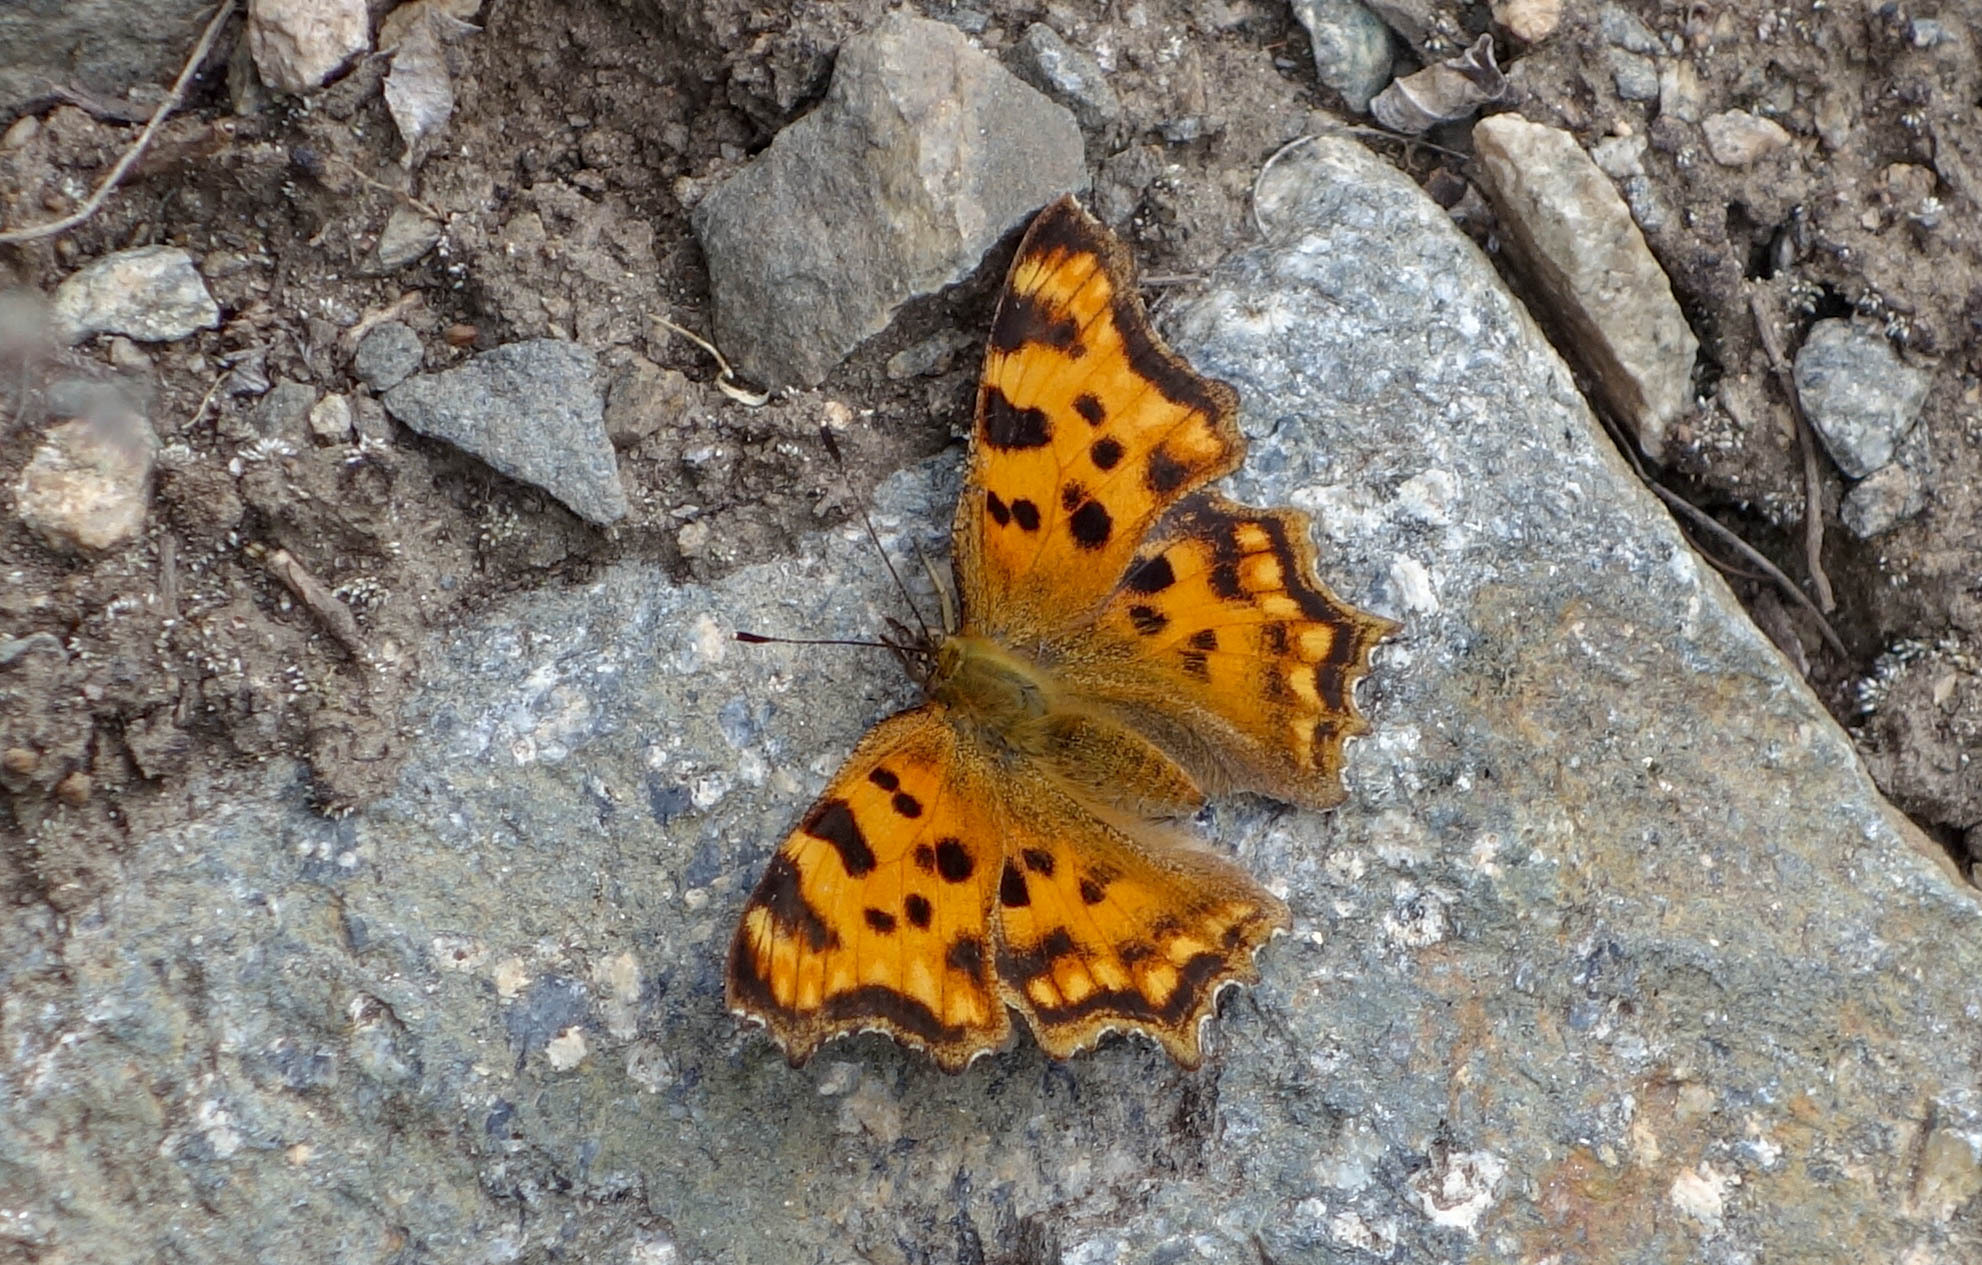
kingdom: Animalia
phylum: Arthropoda
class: Insecta
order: Lepidoptera
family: Nymphalidae
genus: Polygonia
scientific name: Polygonia c-album
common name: Comma
